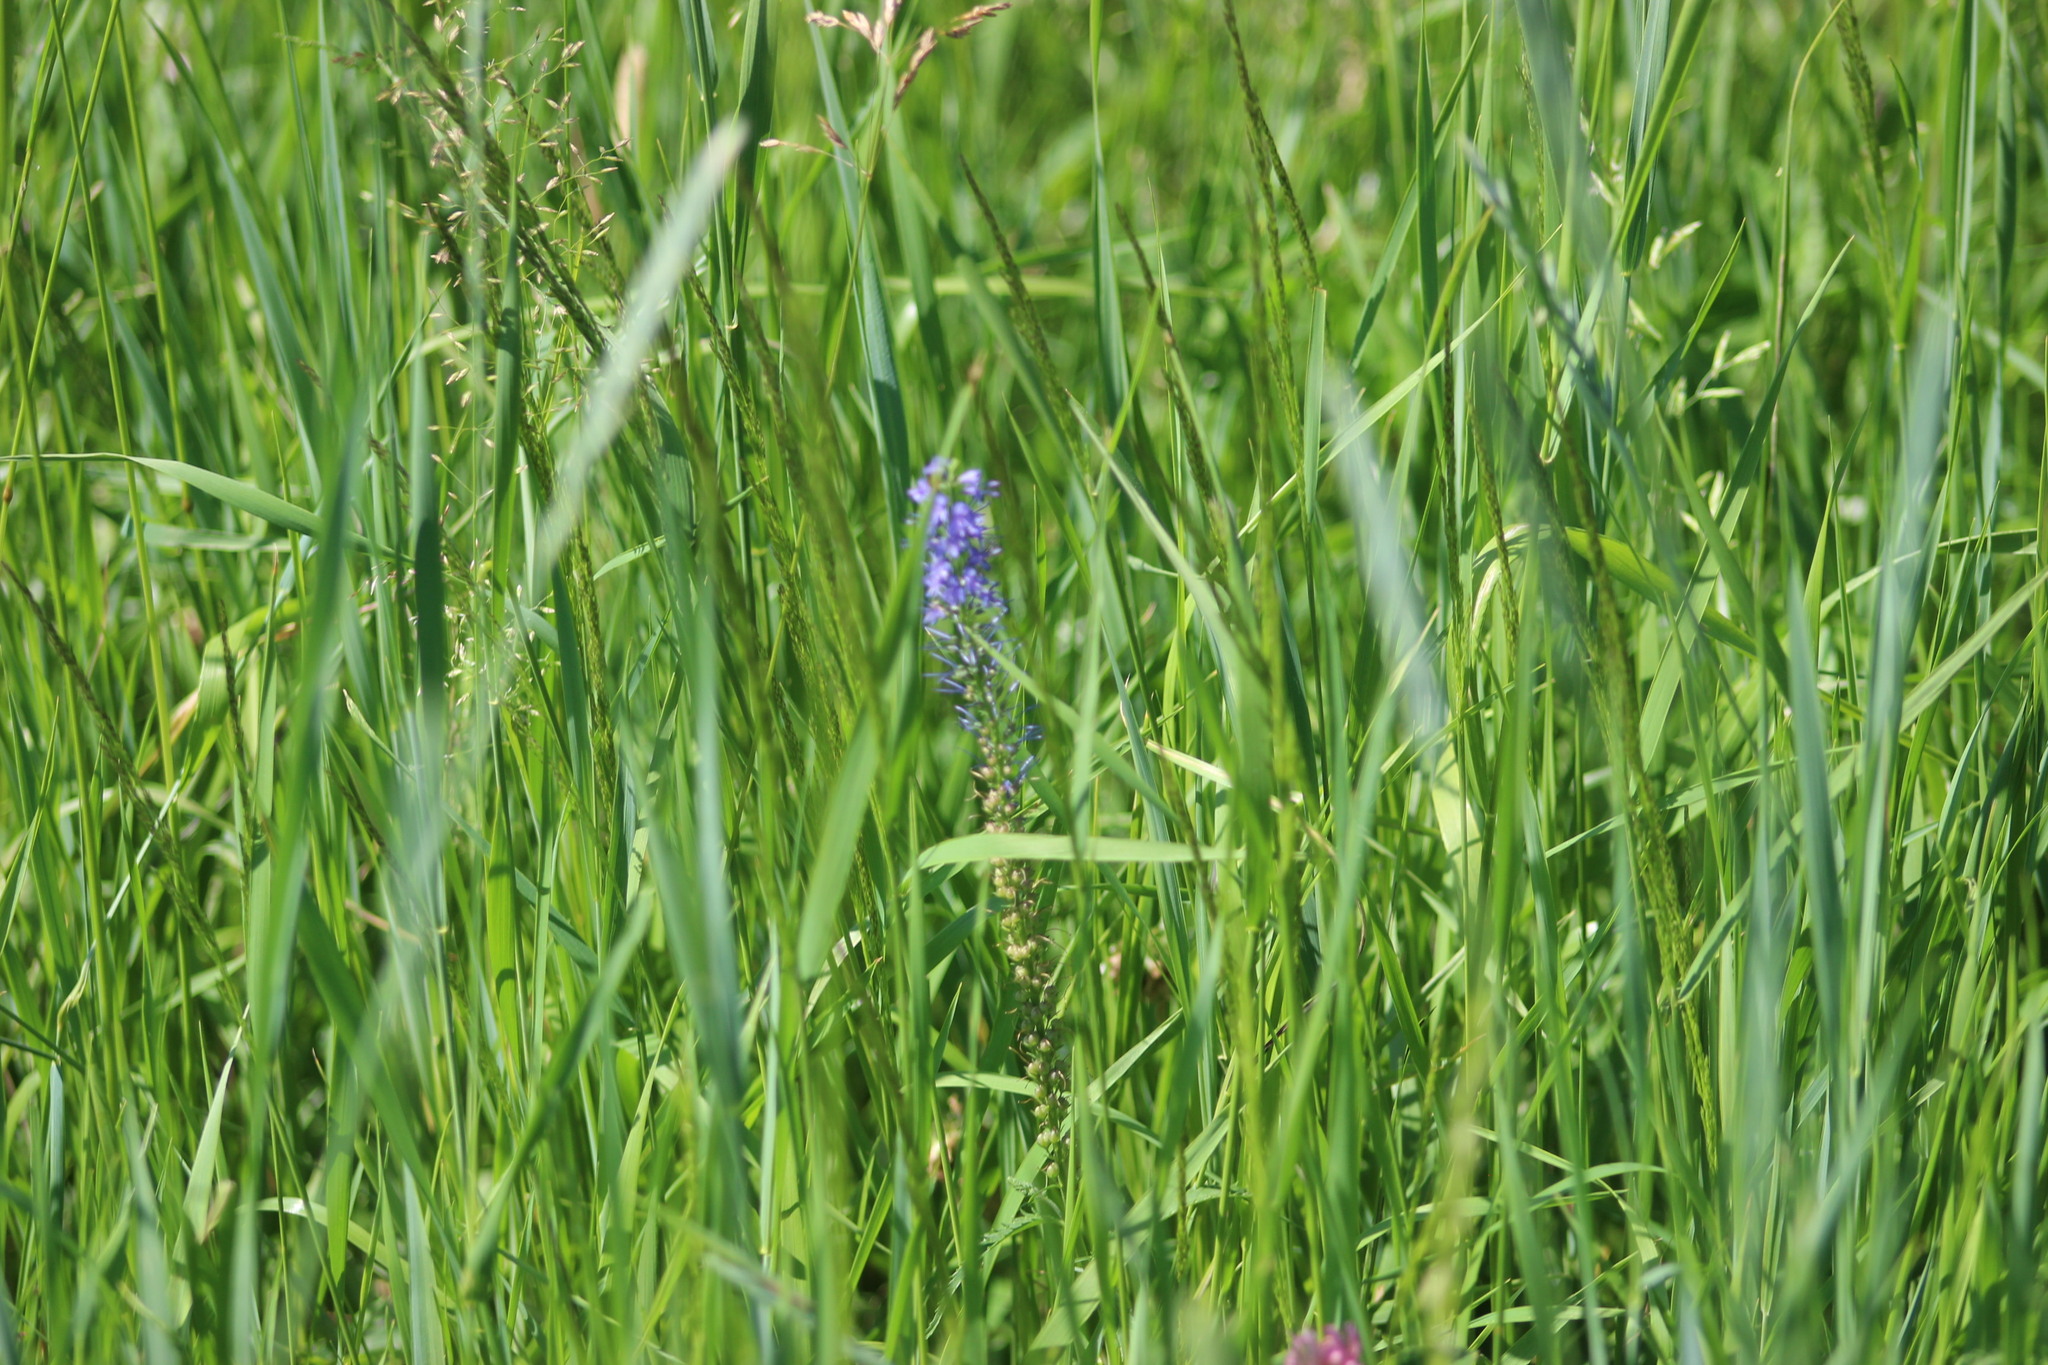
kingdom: Plantae
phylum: Tracheophyta
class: Magnoliopsida
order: Lamiales
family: Plantaginaceae
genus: Veronica
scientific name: Veronica longifolia
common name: Garden speedwell
